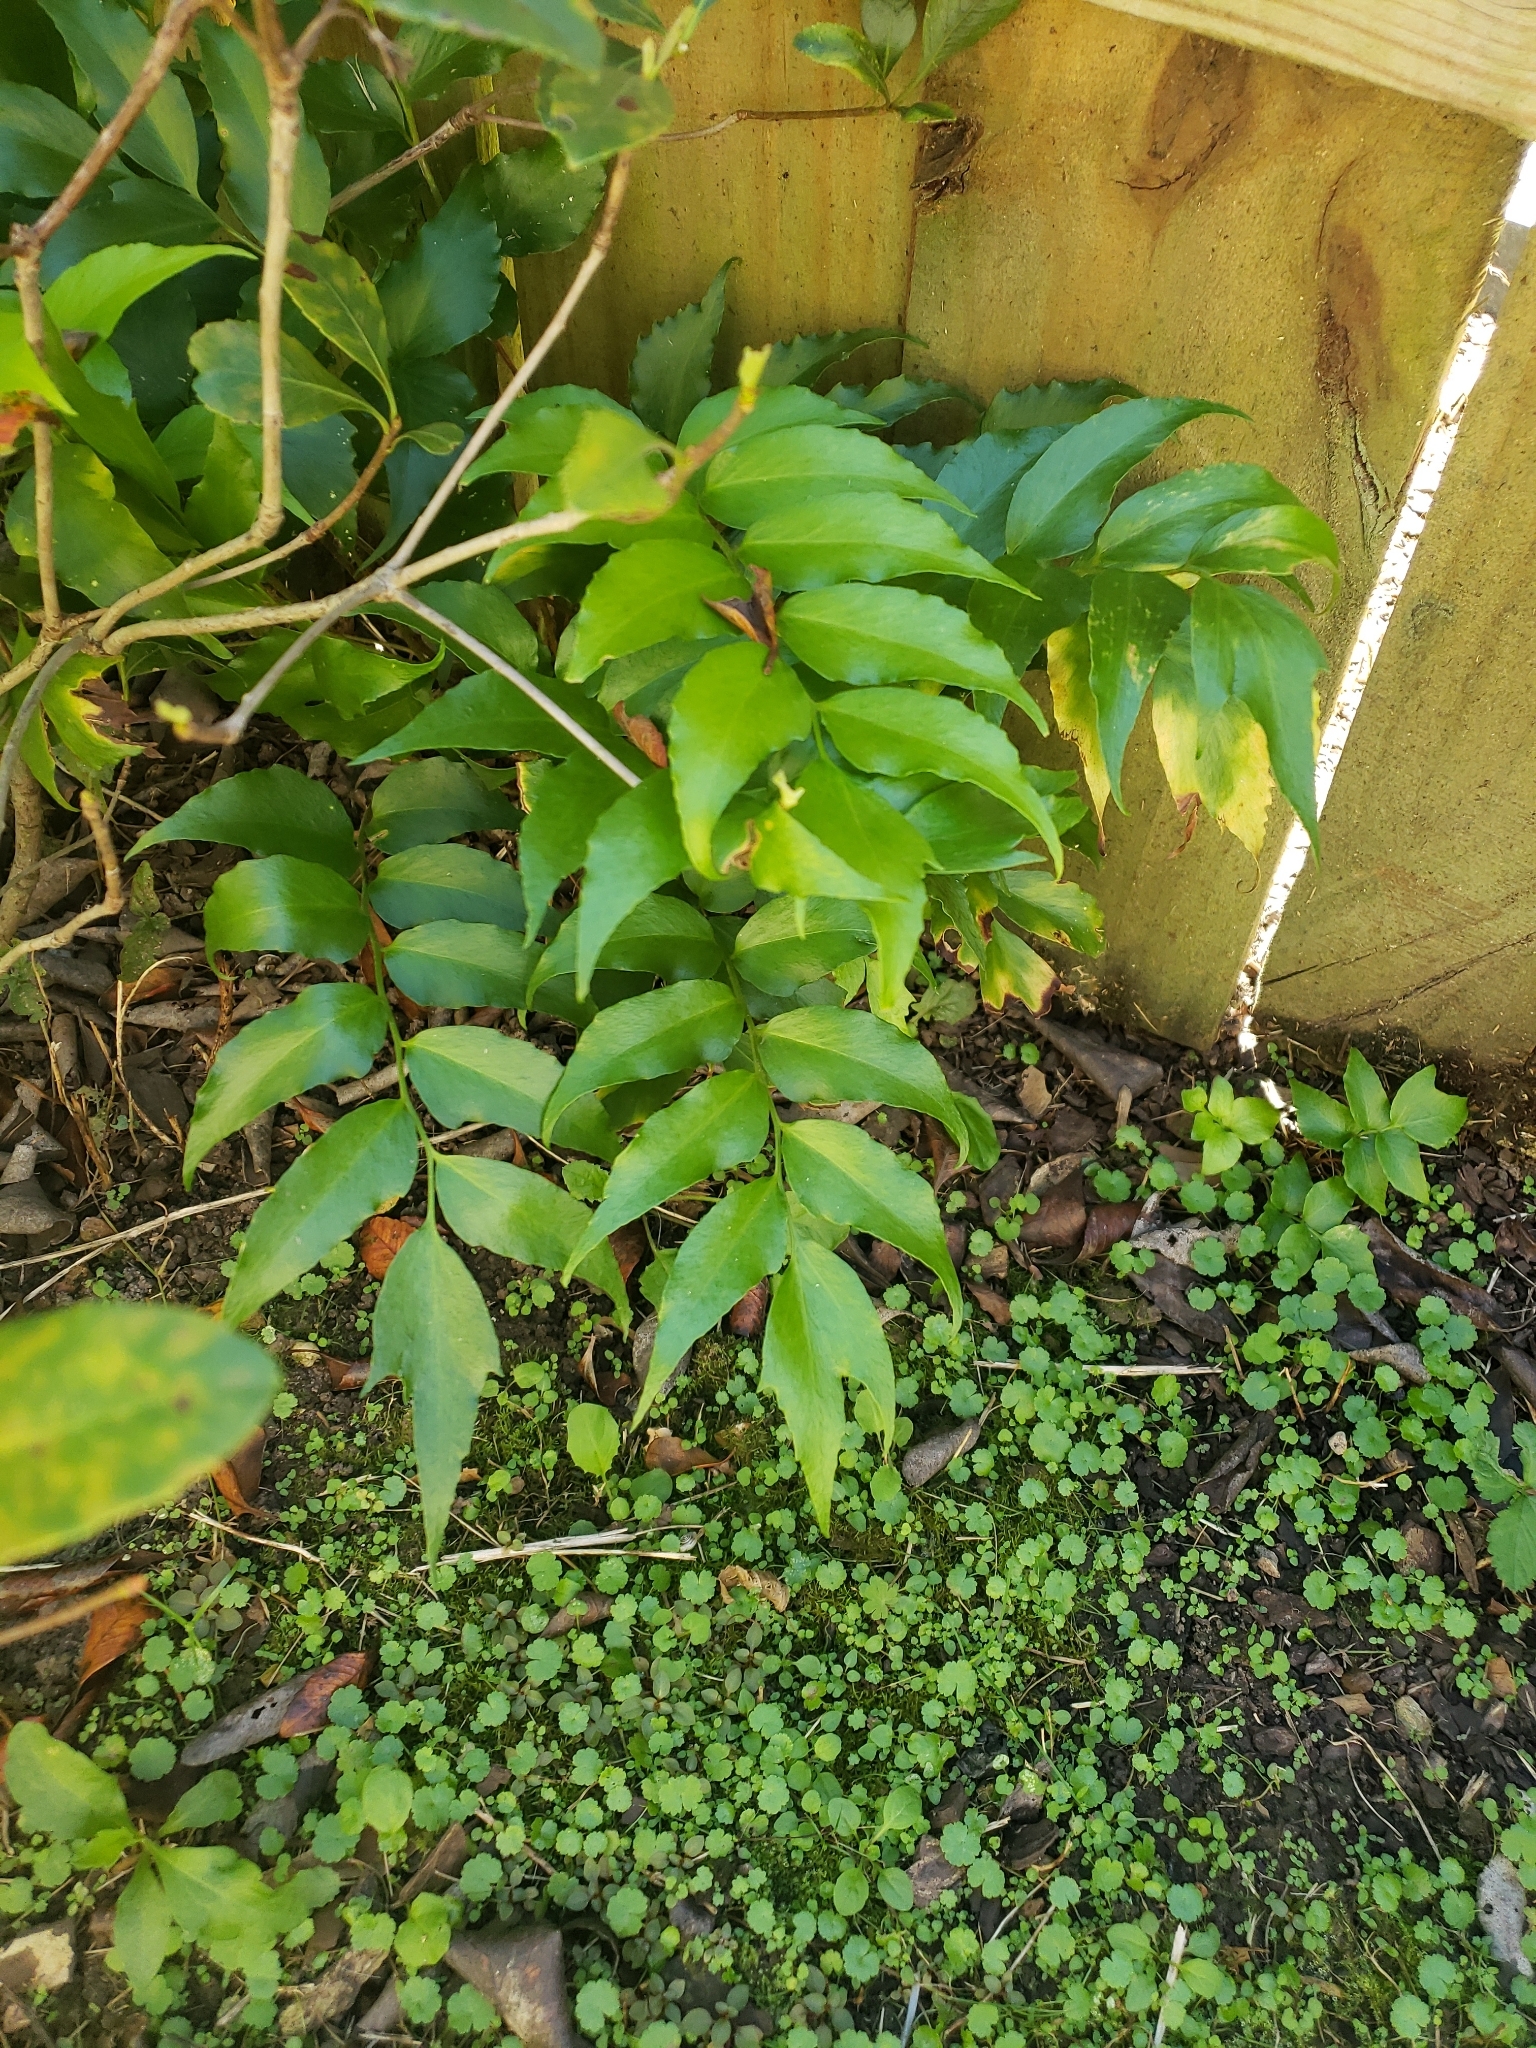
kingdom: Plantae
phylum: Tracheophyta
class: Polypodiopsida
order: Polypodiales
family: Dryopteridaceae
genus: Cyrtomium
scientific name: Cyrtomium falcatum
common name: House holly-fern
